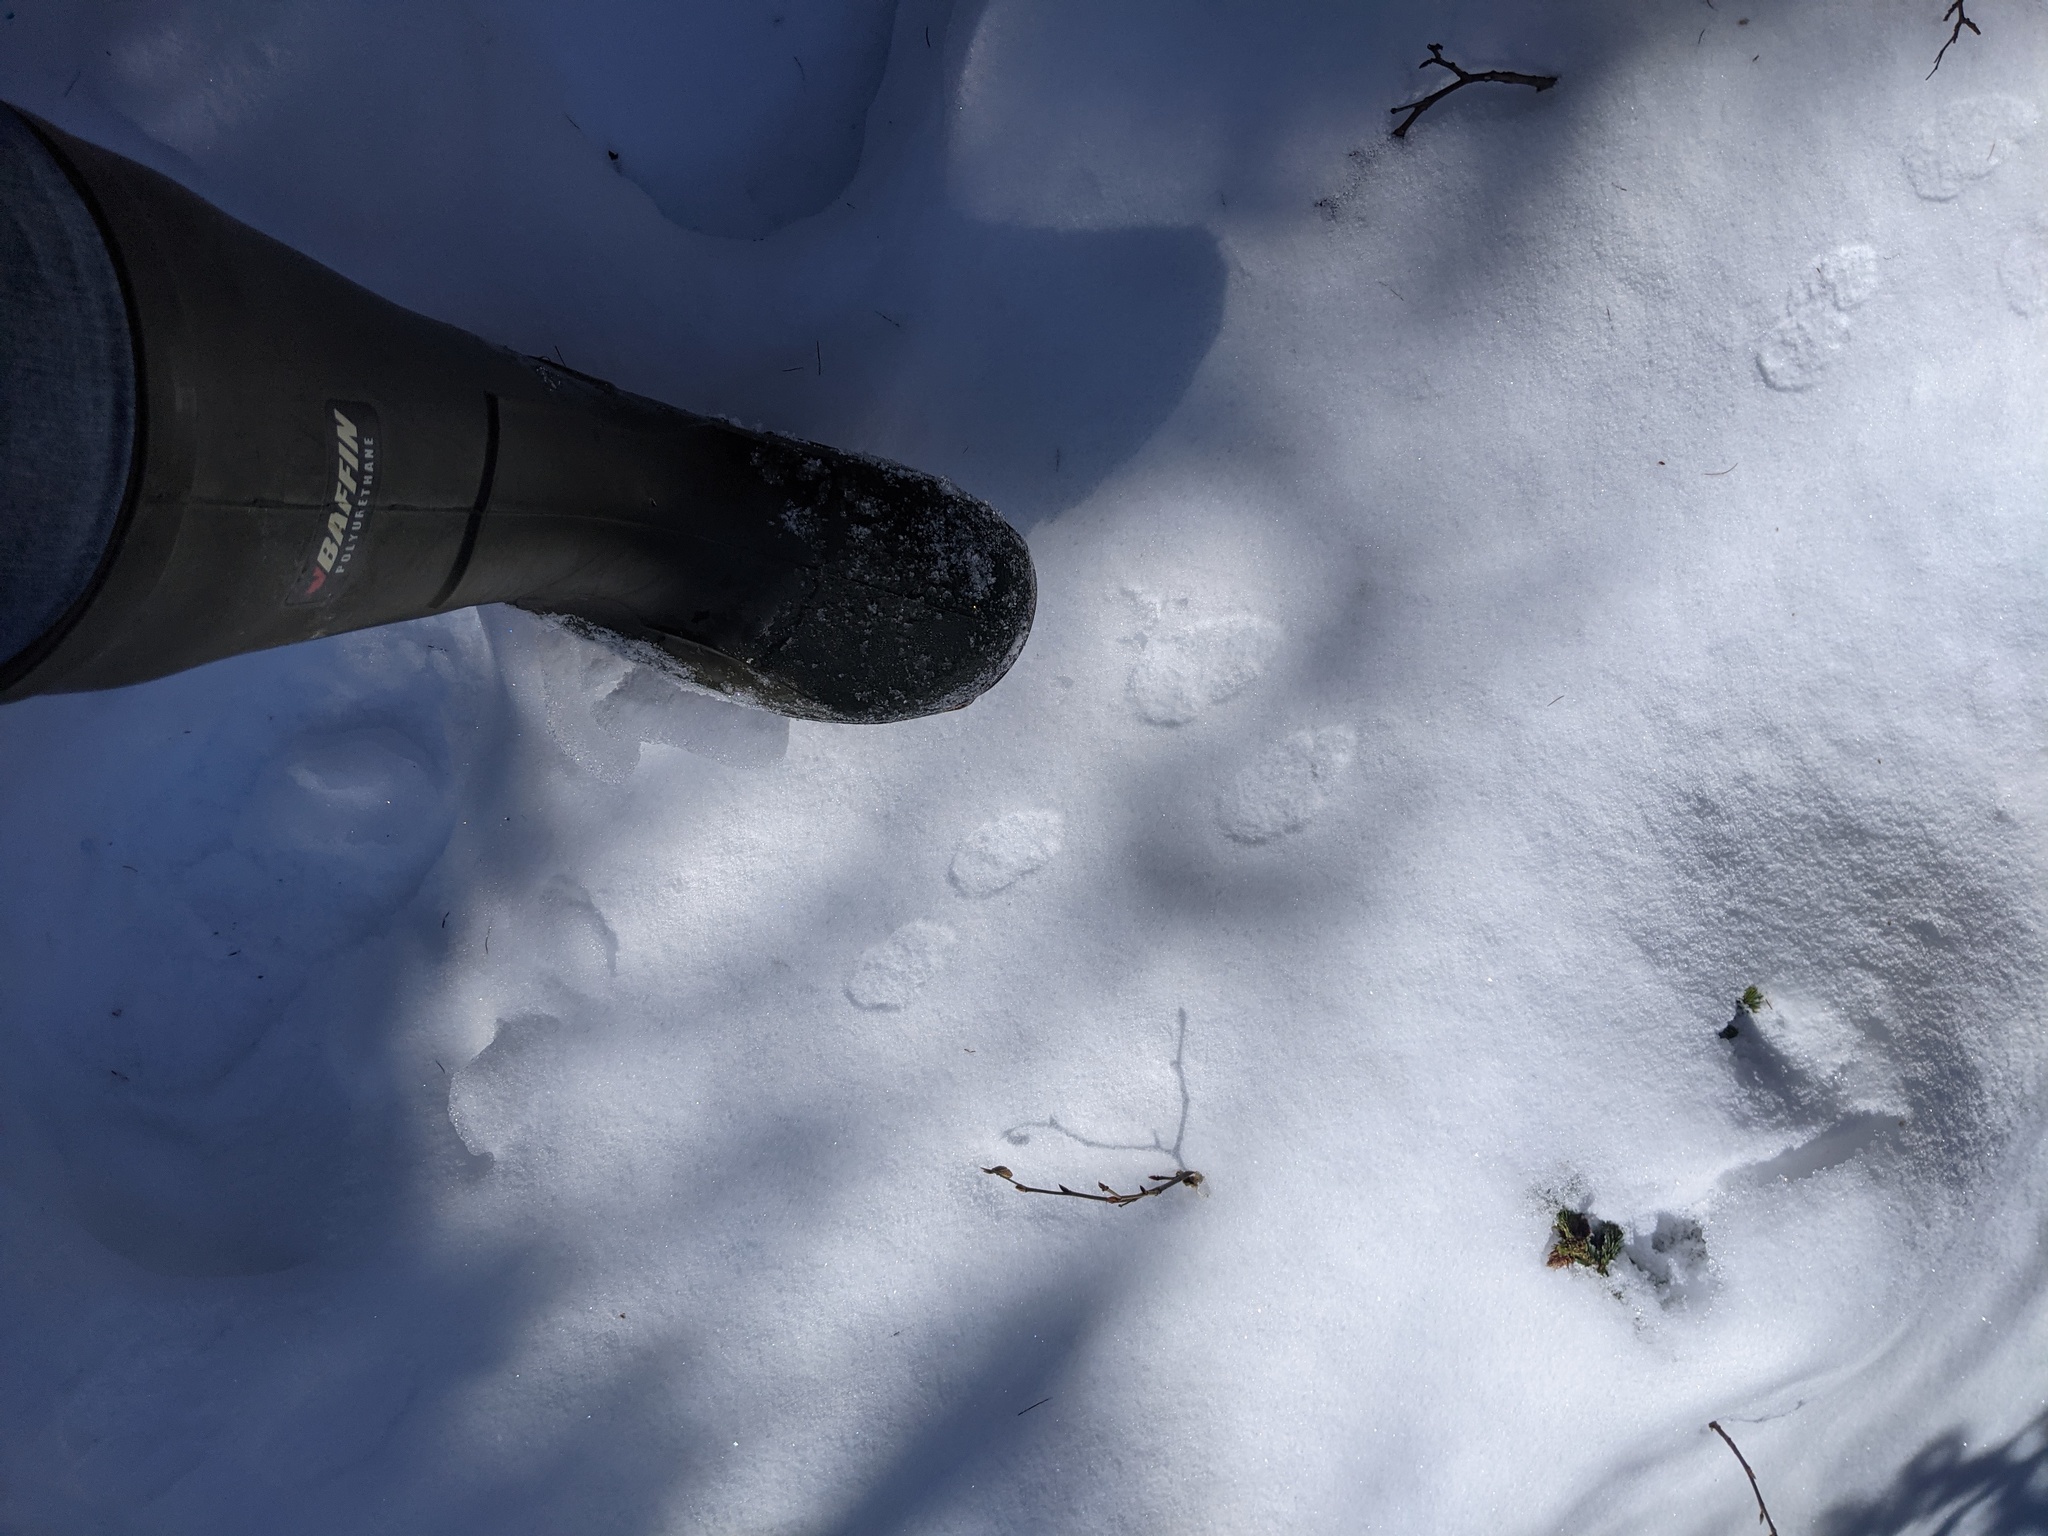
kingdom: Animalia
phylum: Chordata
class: Mammalia
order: Lagomorpha
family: Leporidae
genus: Lepus
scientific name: Lepus americanus
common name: Snowshoe hare
